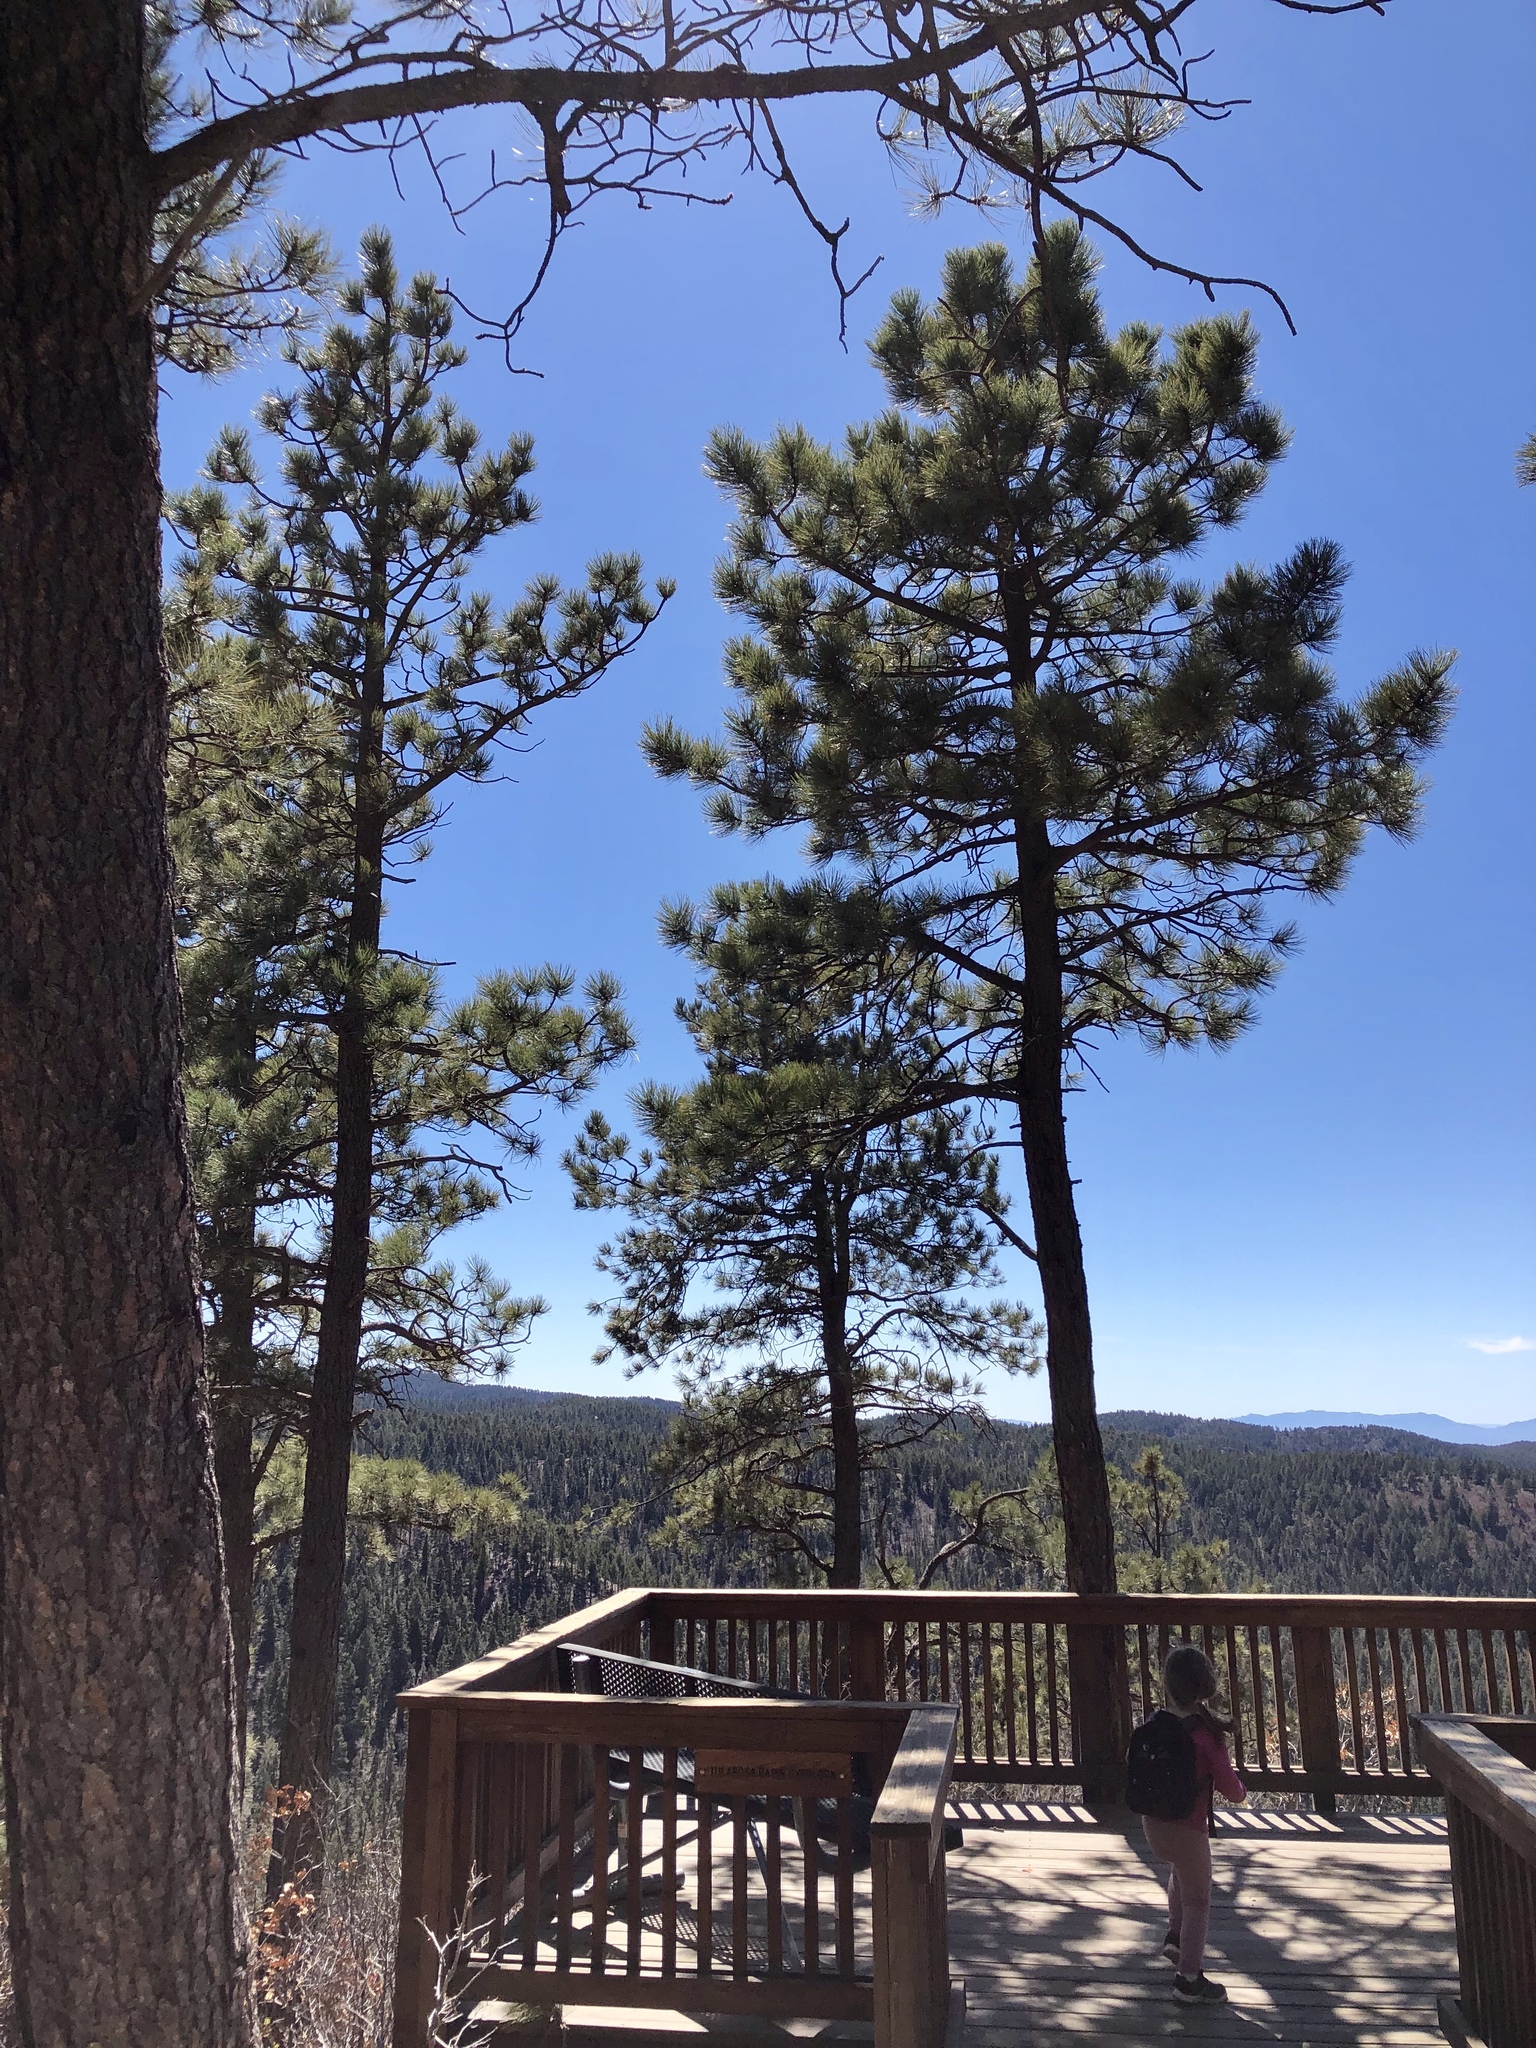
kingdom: Plantae
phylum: Tracheophyta
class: Pinopsida
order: Pinales
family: Pinaceae
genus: Pinus
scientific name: Pinus ponderosa
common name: Western yellow-pine
